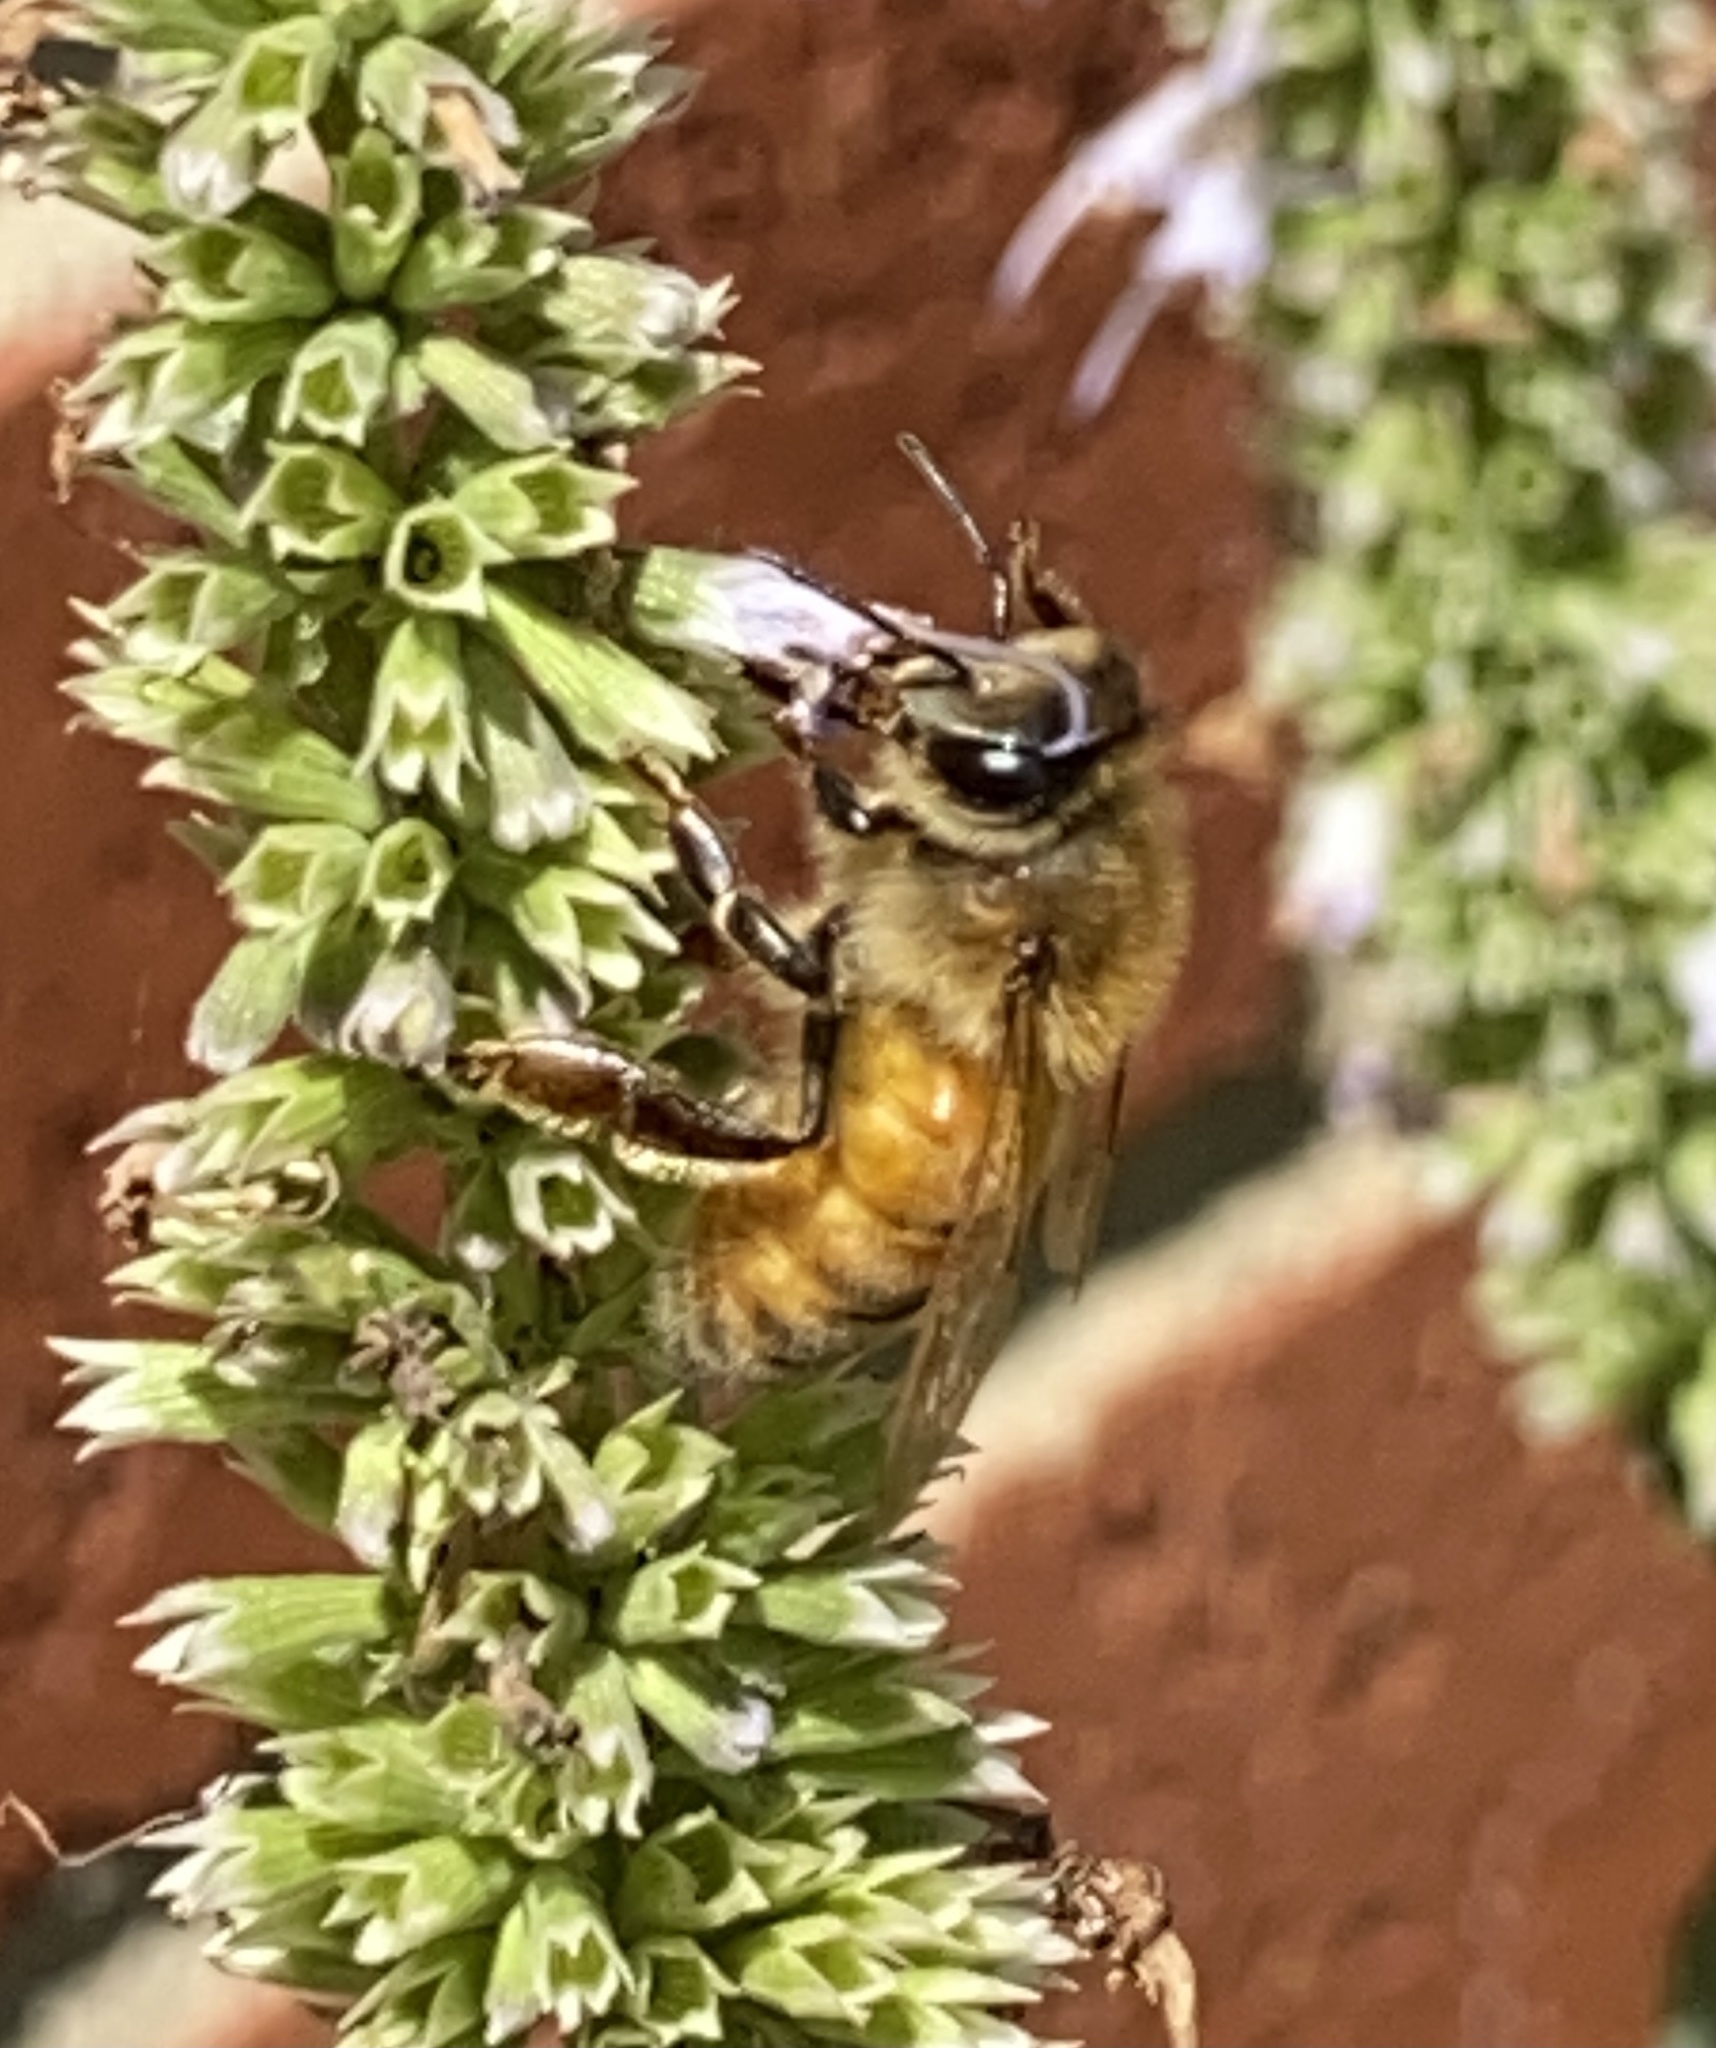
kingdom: Animalia
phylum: Arthropoda
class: Insecta
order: Hymenoptera
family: Apidae
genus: Apis
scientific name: Apis mellifera
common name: Honey bee
